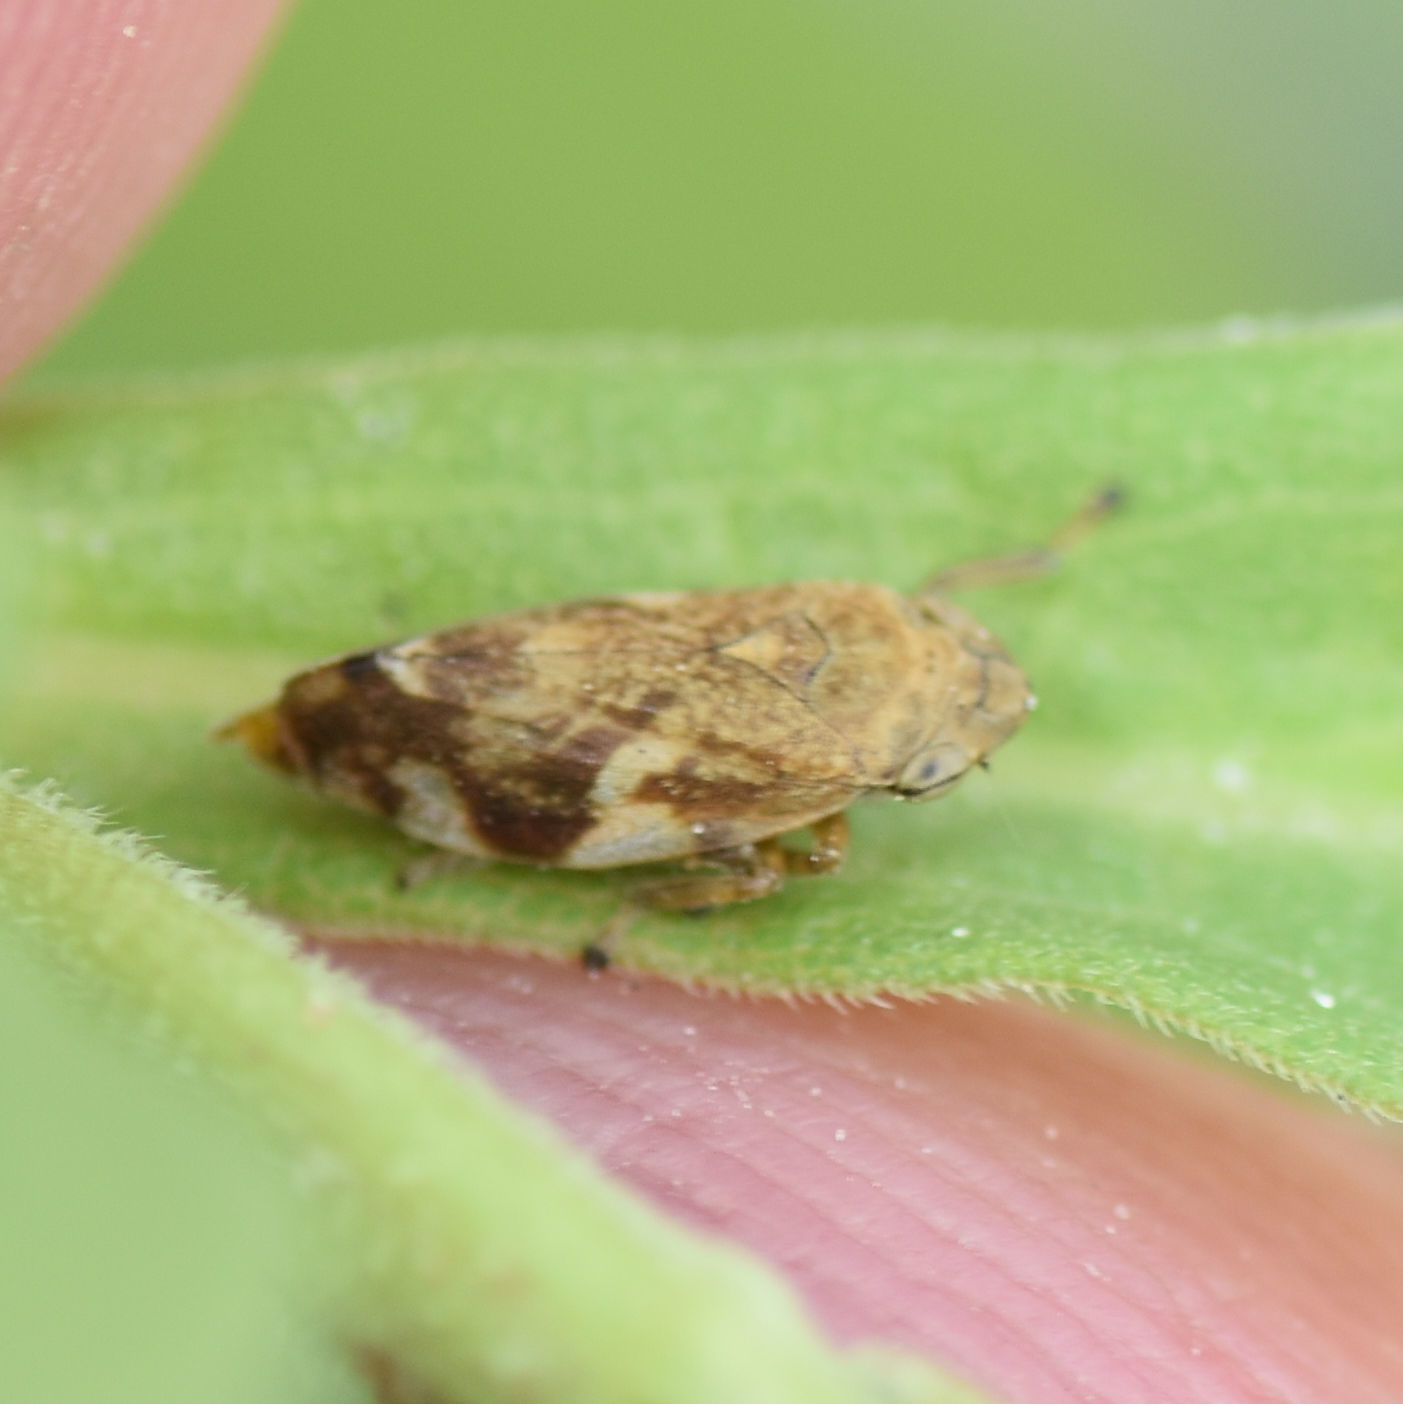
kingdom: Animalia
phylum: Arthropoda
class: Insecta
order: Hemiptera
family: Aphrophoridae
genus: Philaenus
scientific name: Philaenus spumarius
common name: Meadow spittlebug
